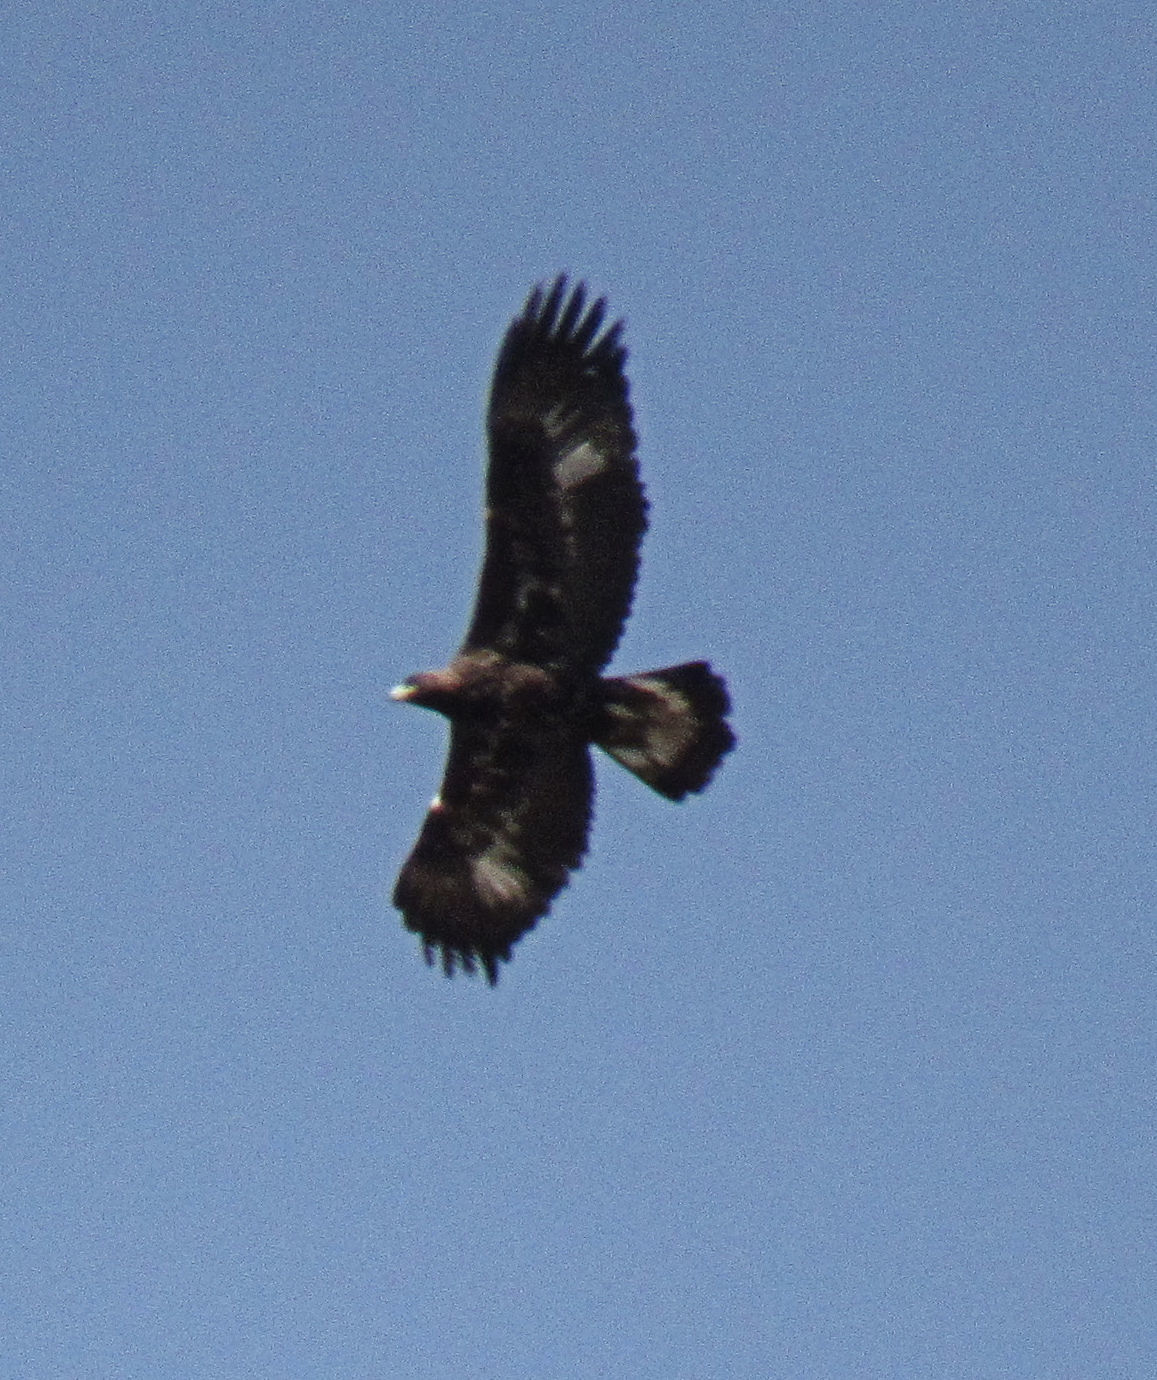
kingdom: Animalia
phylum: Chordata
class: Aves
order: Accipitriformes
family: Accipitridae
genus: Aquila
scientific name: Aquila chrysaetos
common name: Golden eagle
